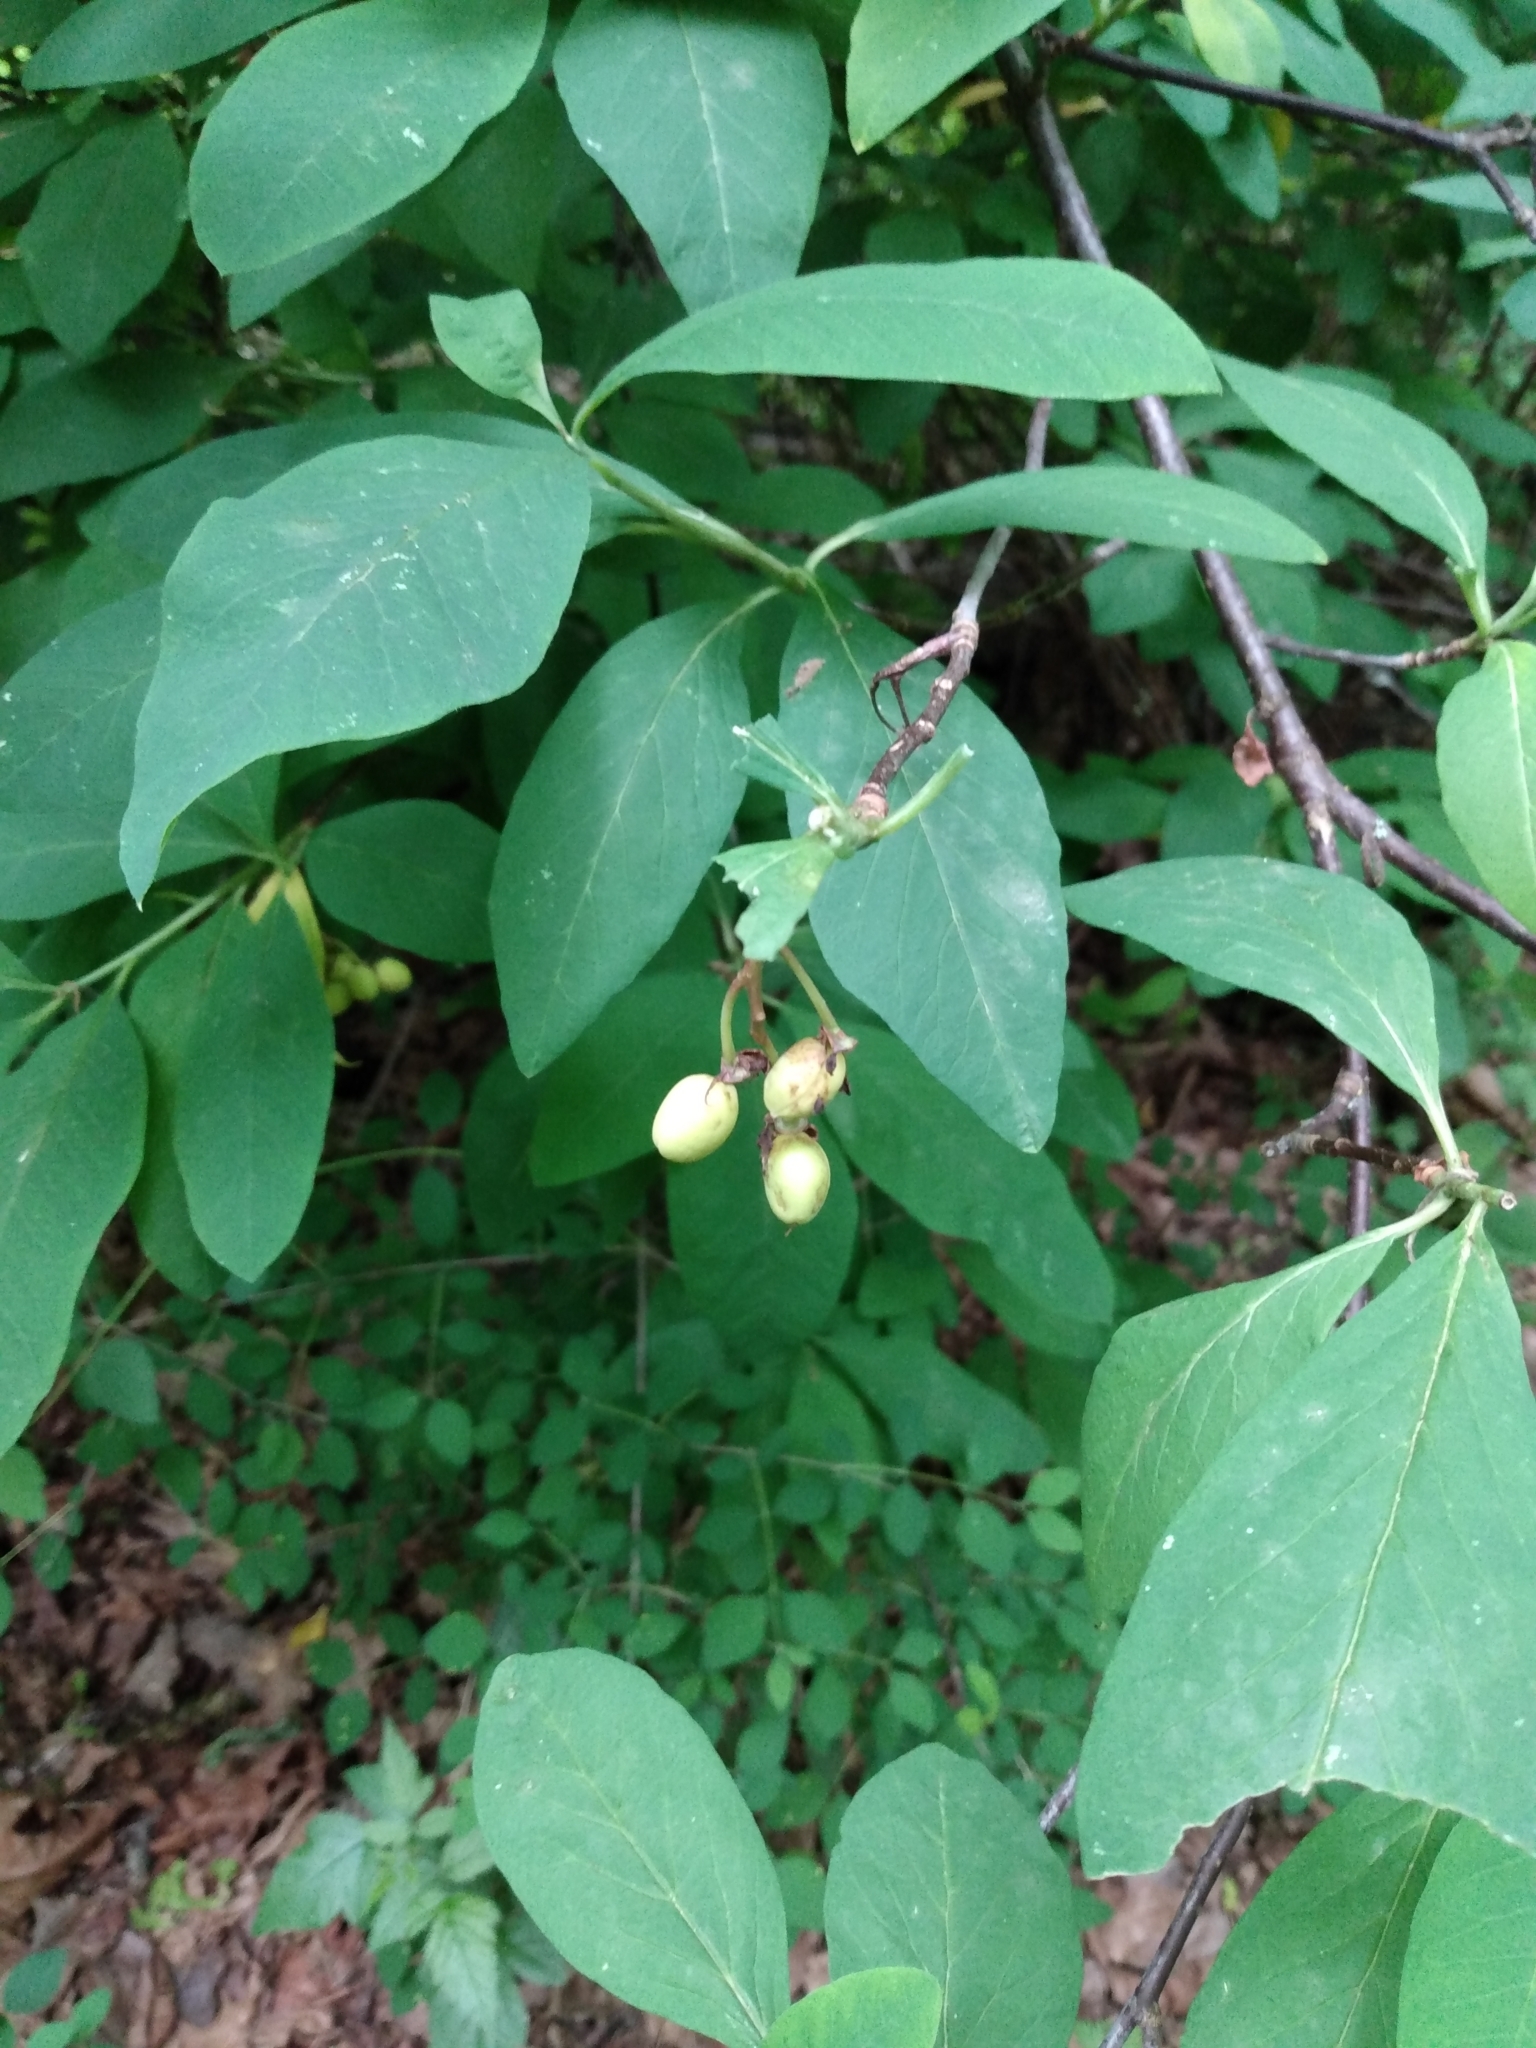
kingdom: Plantae
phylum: Tracheophyta
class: Magnoliopsida
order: Rosales
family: Rosaceae
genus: Oemleria
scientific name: Oemleria cerasiformis
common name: Osoberry
